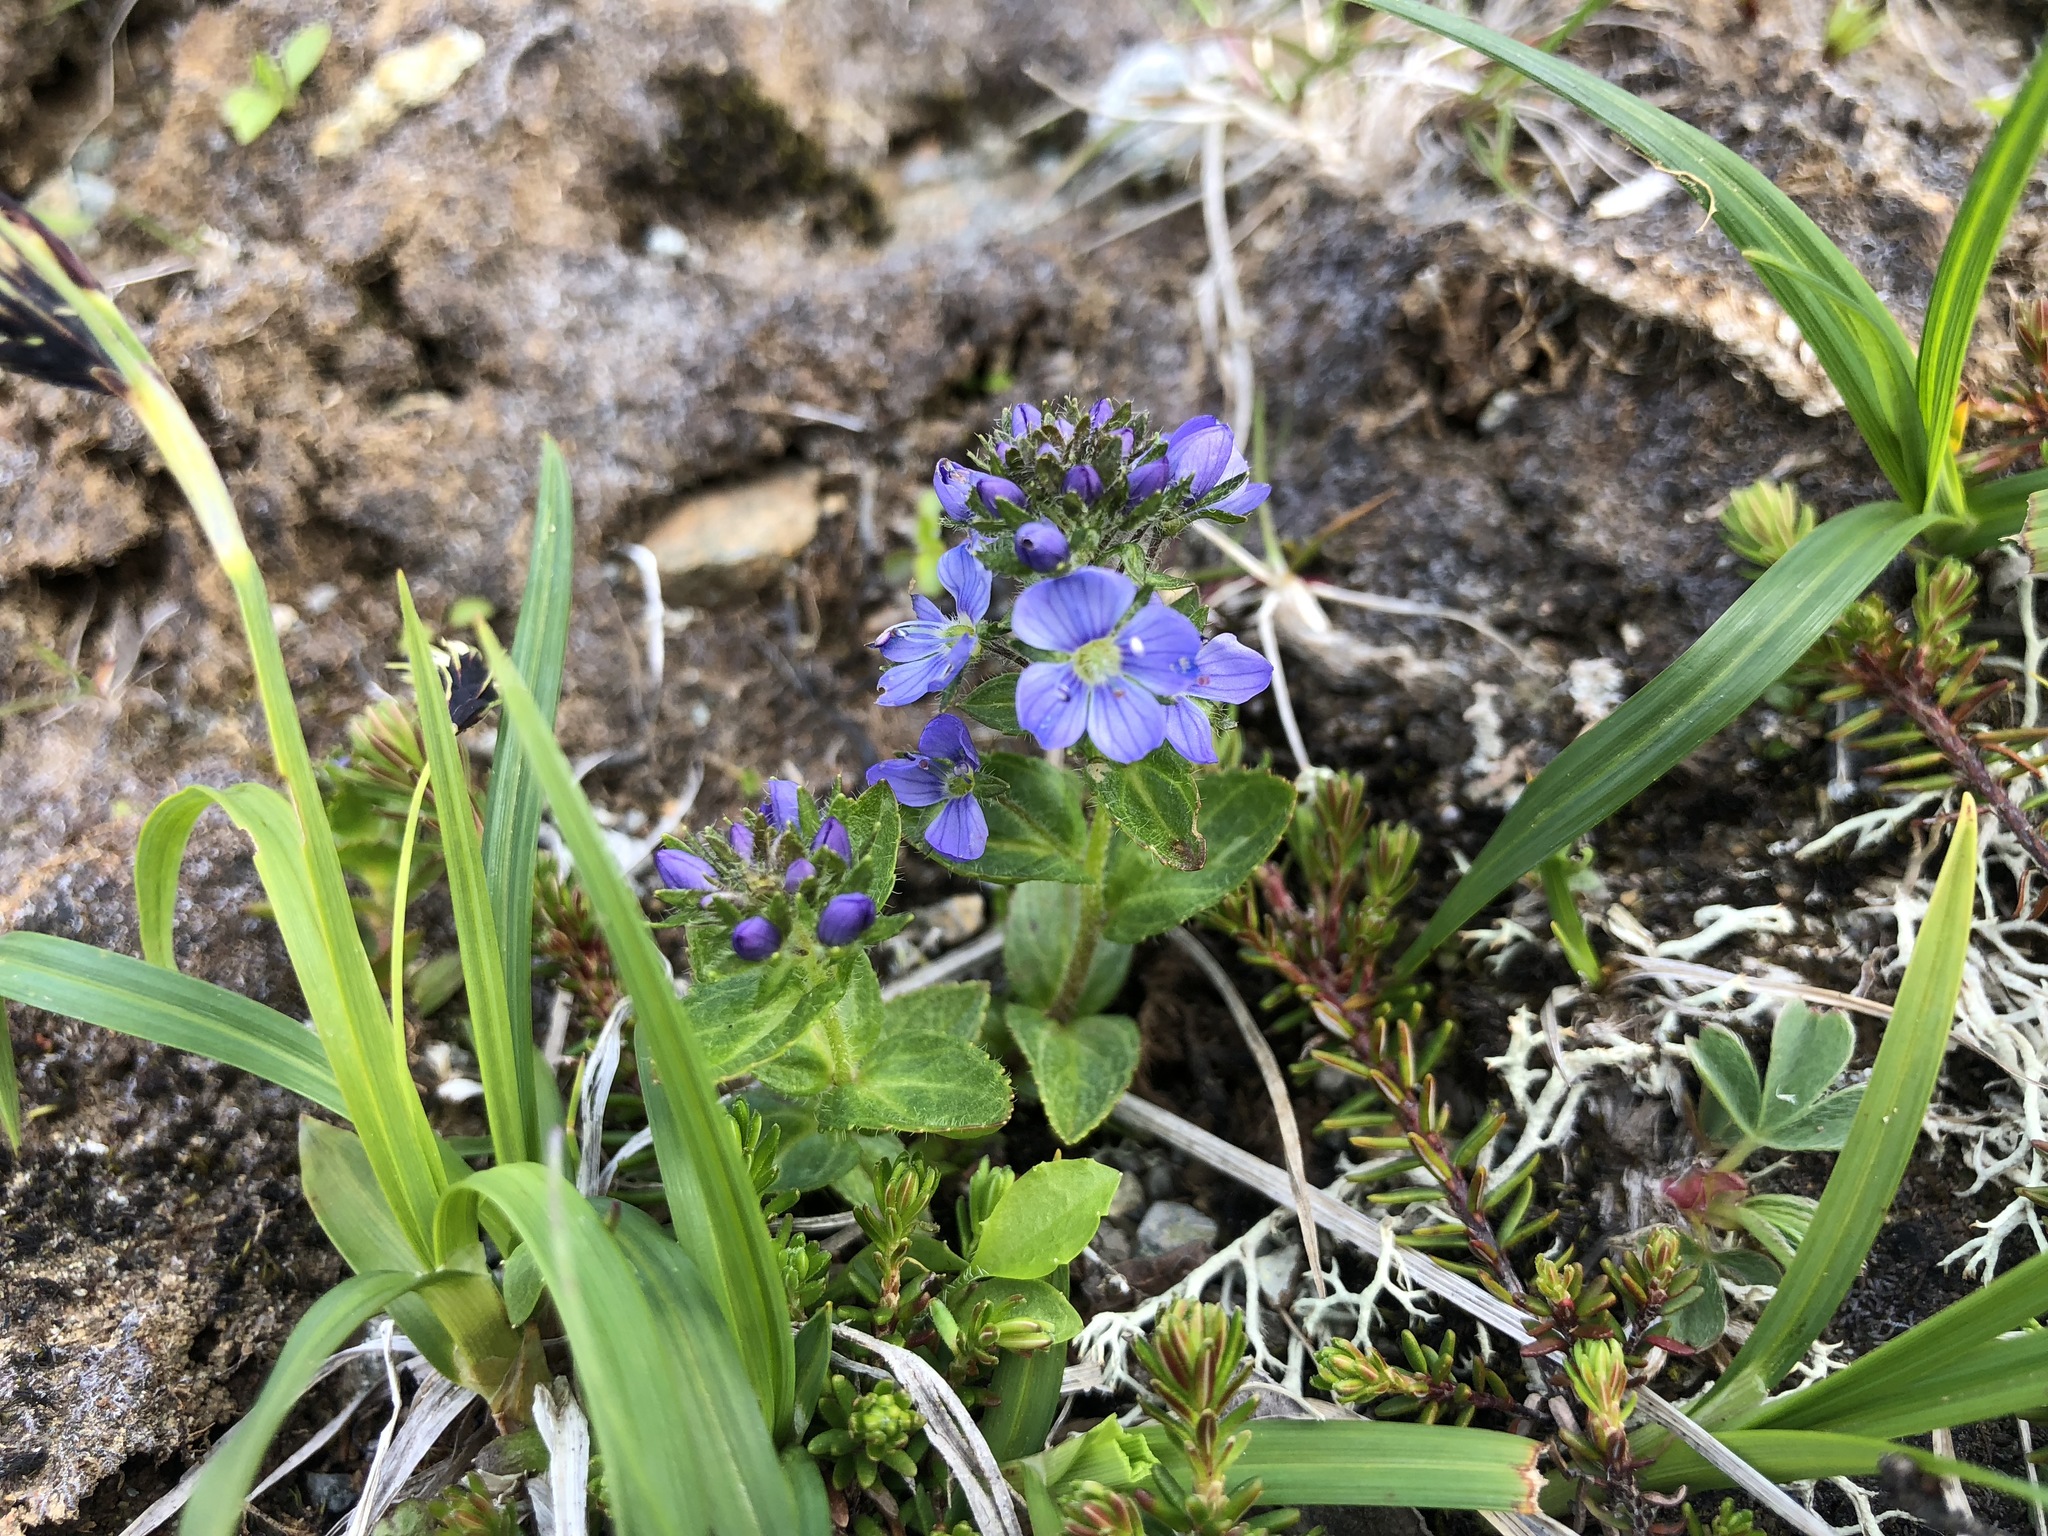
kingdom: Plantae
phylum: Tracheophyta
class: Magnoliopsida
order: Lamiales
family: Plantaginaceae
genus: Veronica
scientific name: Veronica stelleri
